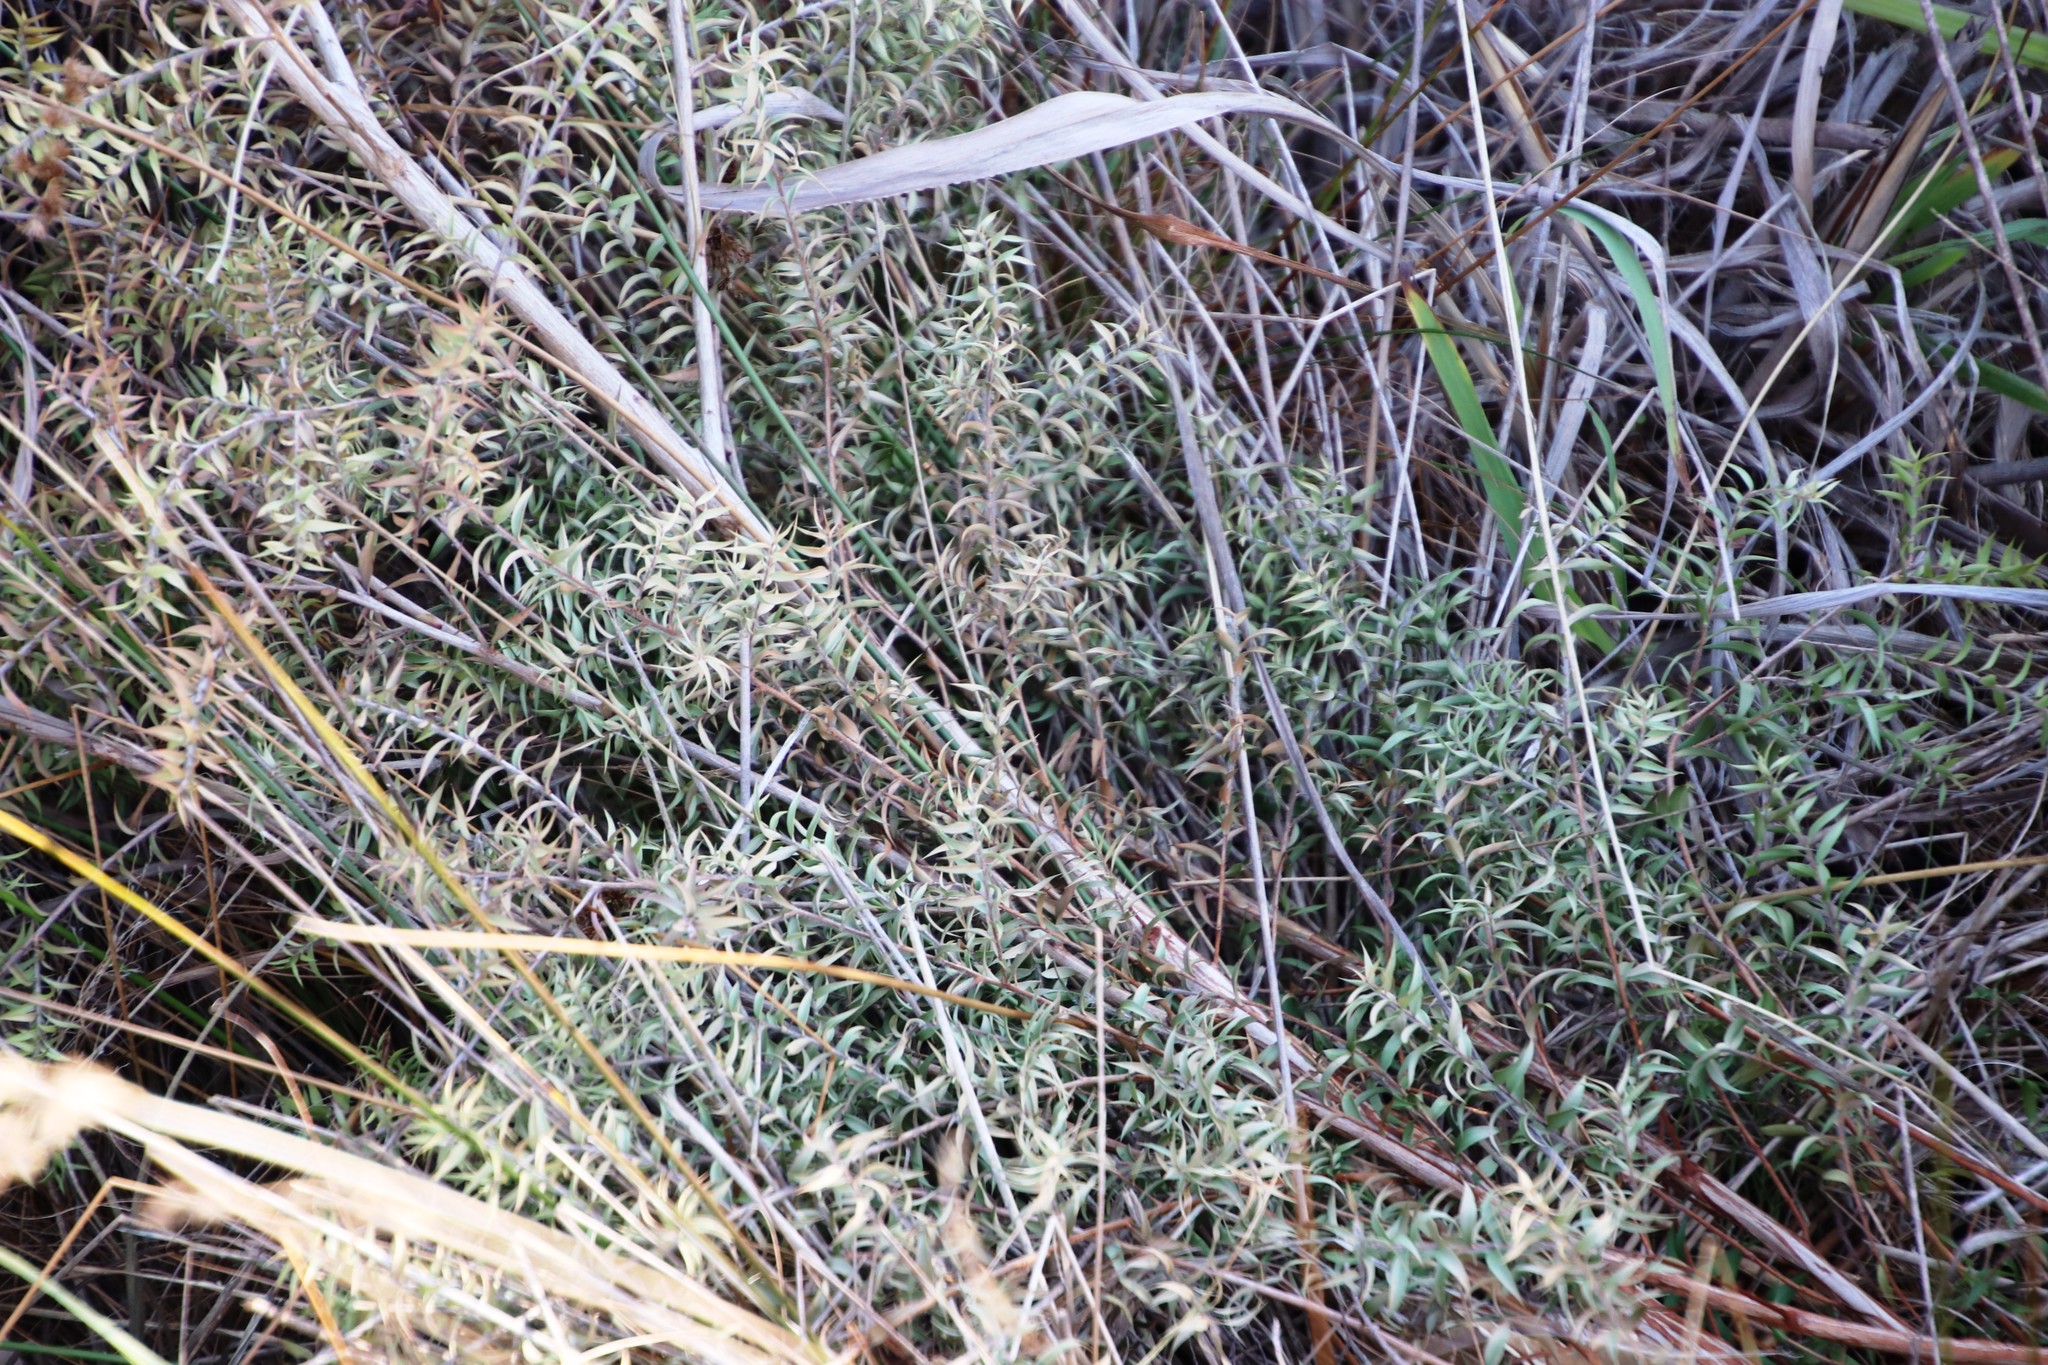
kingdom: Plantae
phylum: Tracheophyta
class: Magnoliopsida
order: Myrtales
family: Myrtaceae
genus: Melaleuca
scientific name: Melaleuca styphelioides
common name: Prickly paperbark
